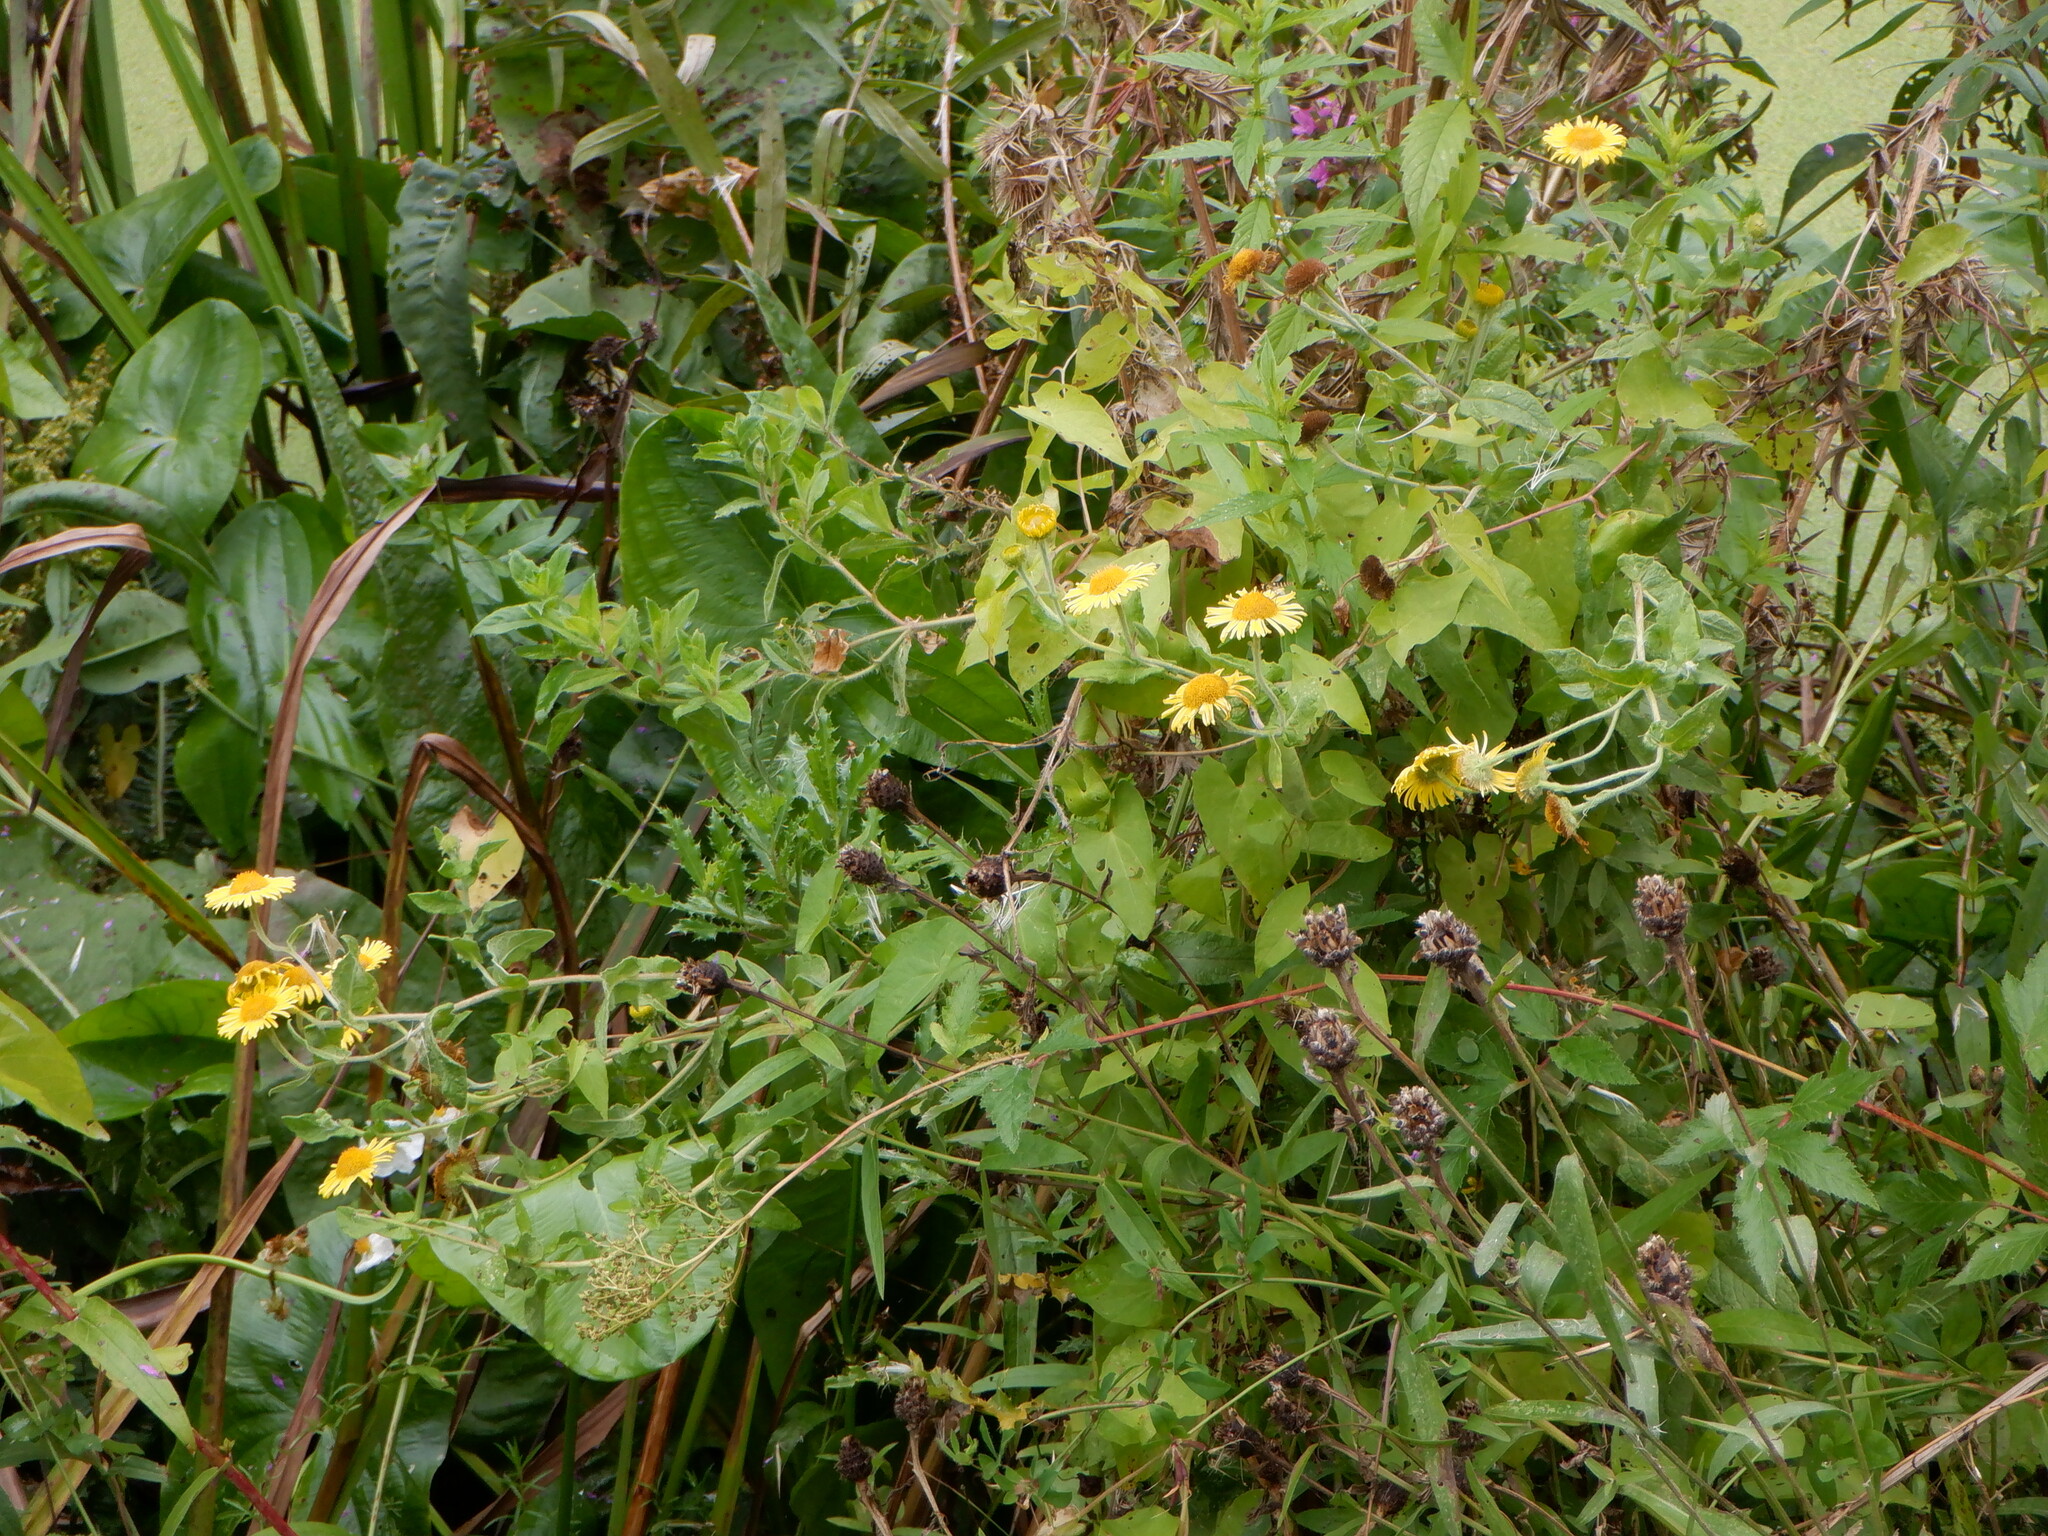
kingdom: Plantae
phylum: Tracheophyta
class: Magnoliopsida
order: Asterales
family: Asteraceae
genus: Pulicaria
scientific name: Pulicaria dysenterica
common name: Common fleabane
